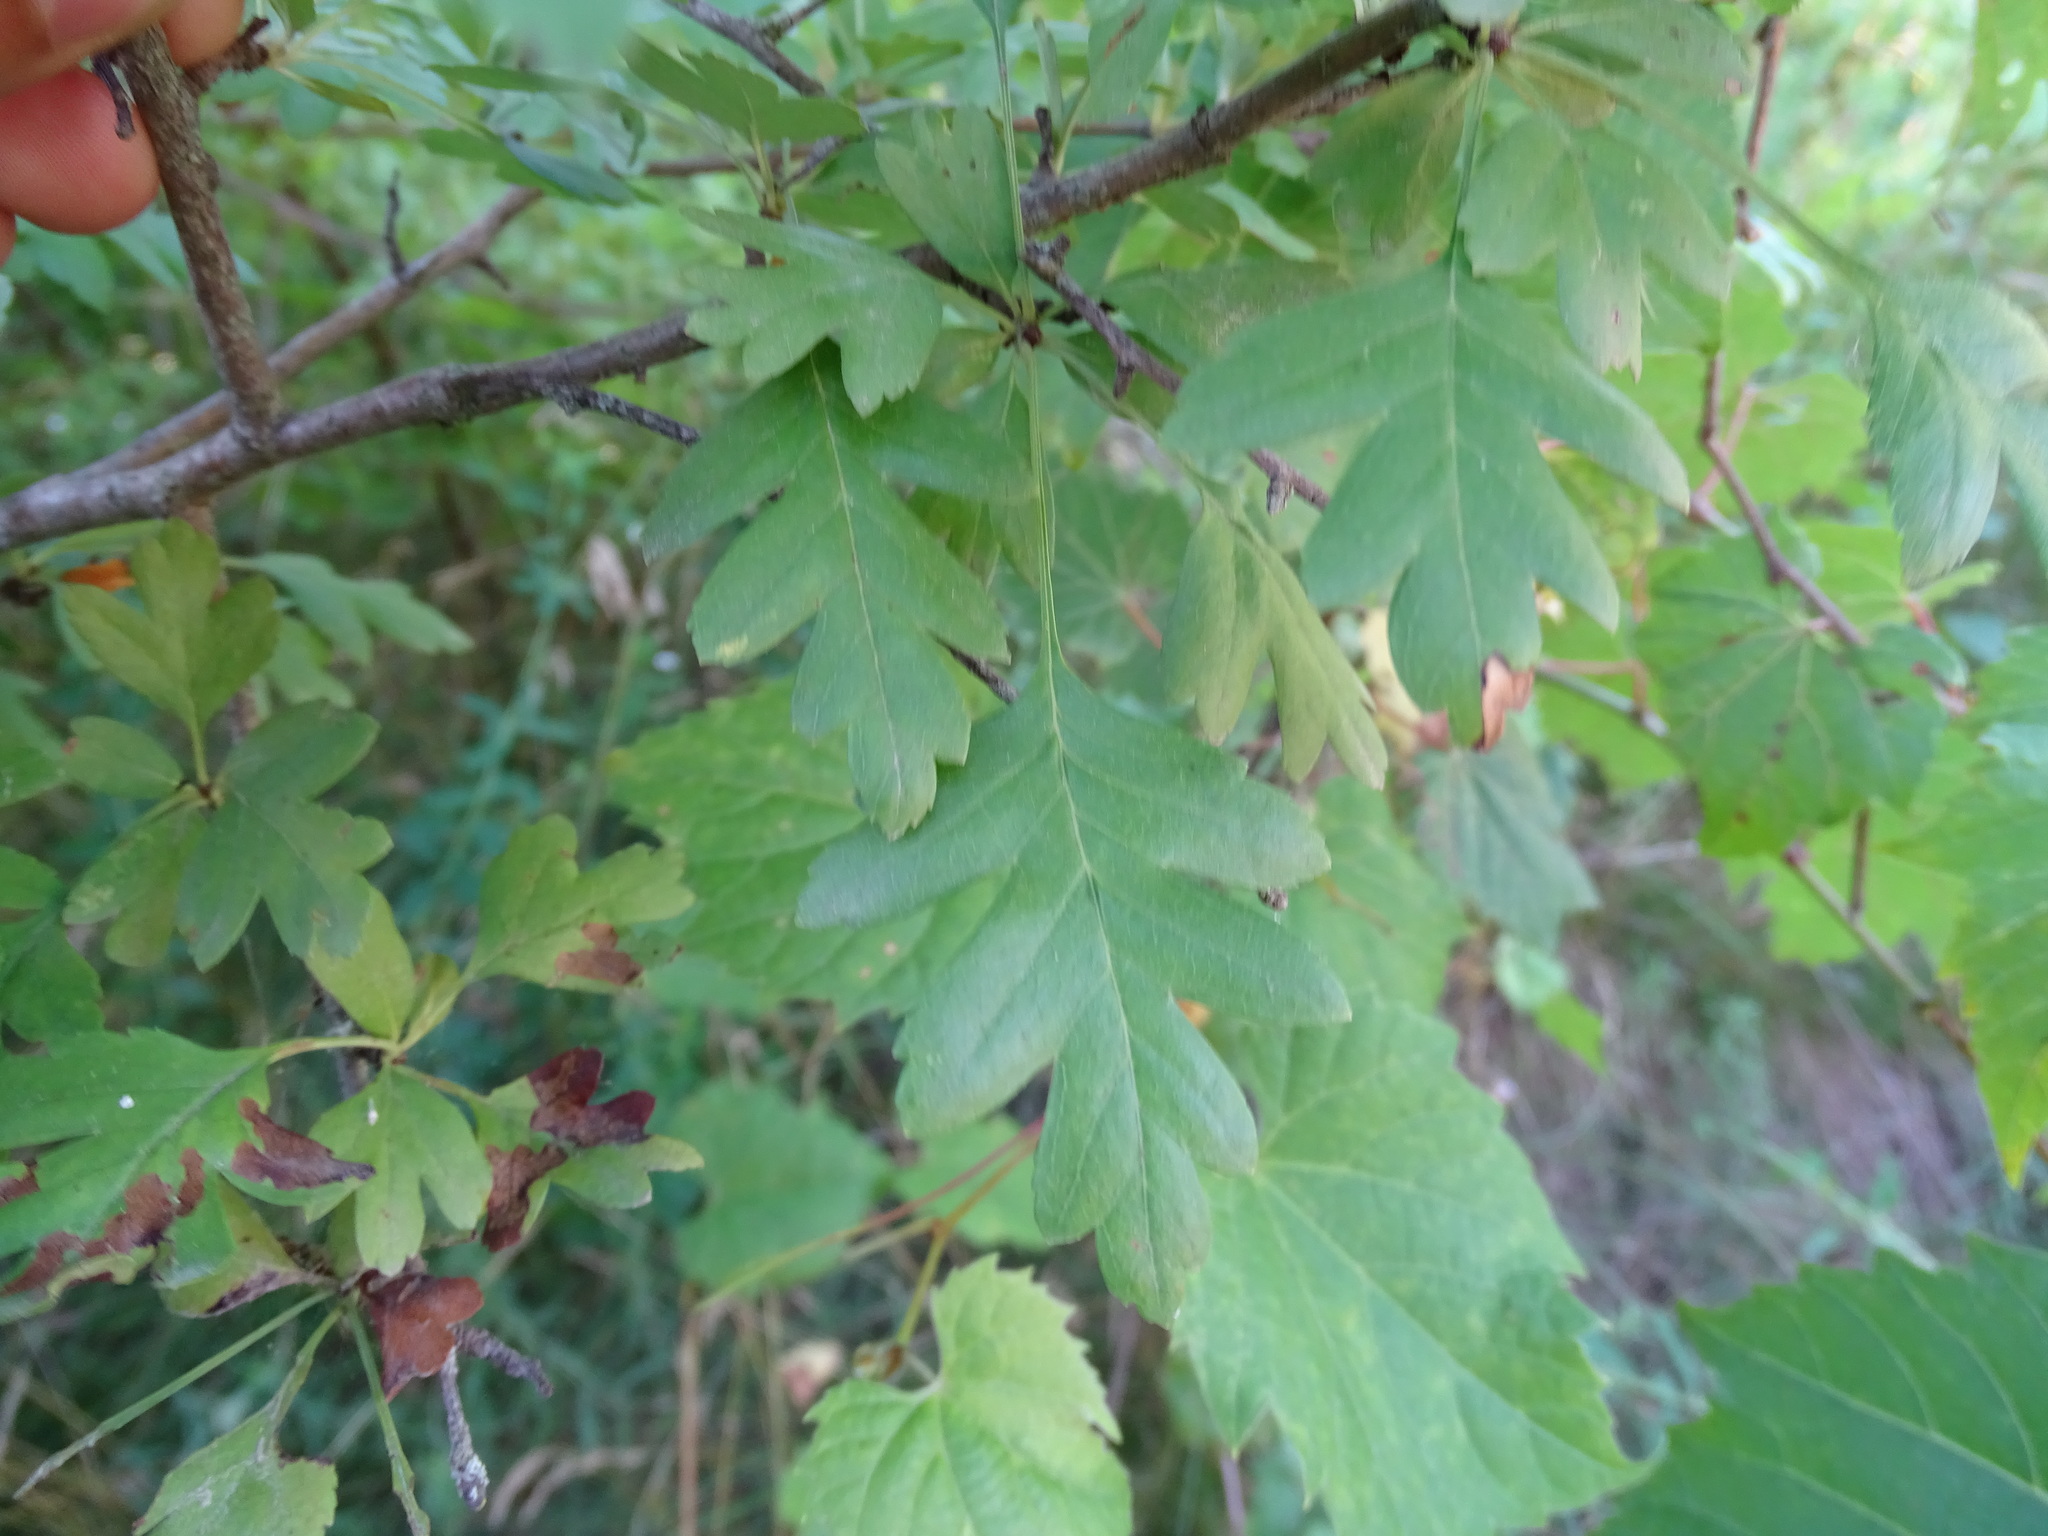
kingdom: Plantae
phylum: Tracheophyta
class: Magnoliopsida
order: Rosales
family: Rosaceae
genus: Crataegus
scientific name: Crataegus monogyna
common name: Hawthorn
